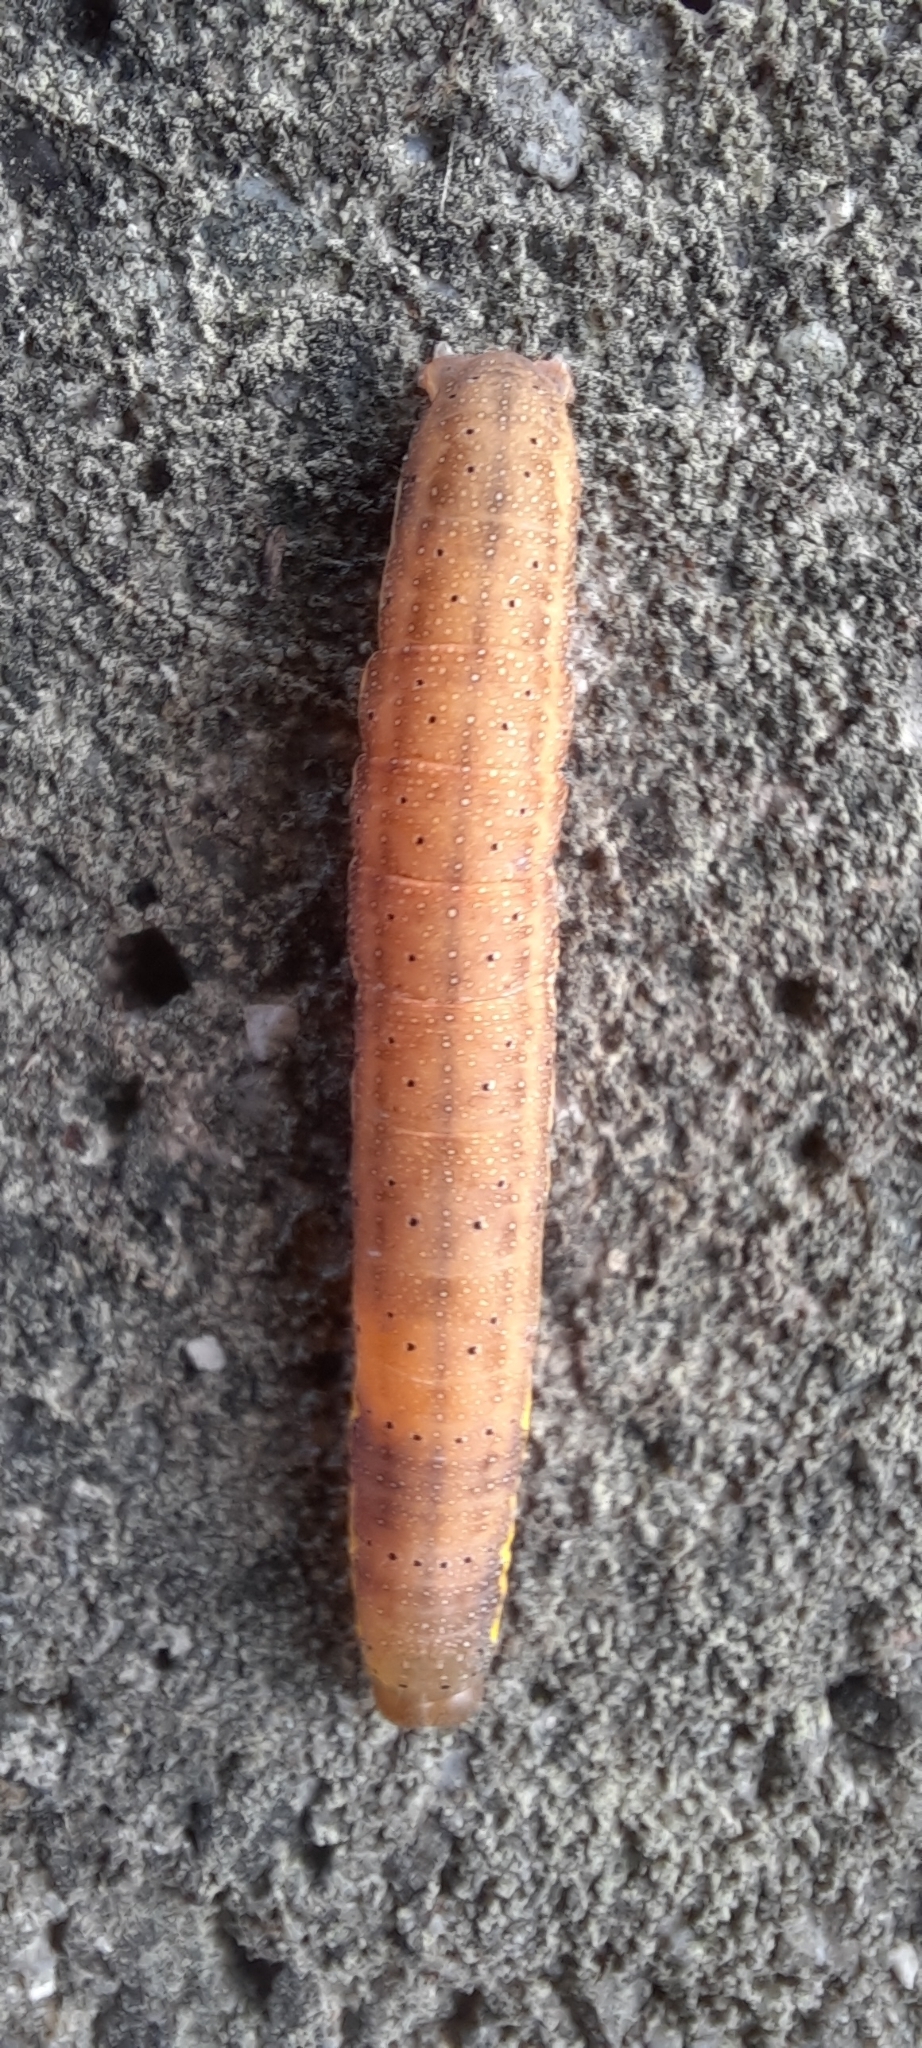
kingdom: Animalia
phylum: Arthropoda
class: Insecta
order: Lepidoptera
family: Noctuidae
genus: Lacanobia
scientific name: Lacanobia oleracea
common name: Bright-line brown-eye
